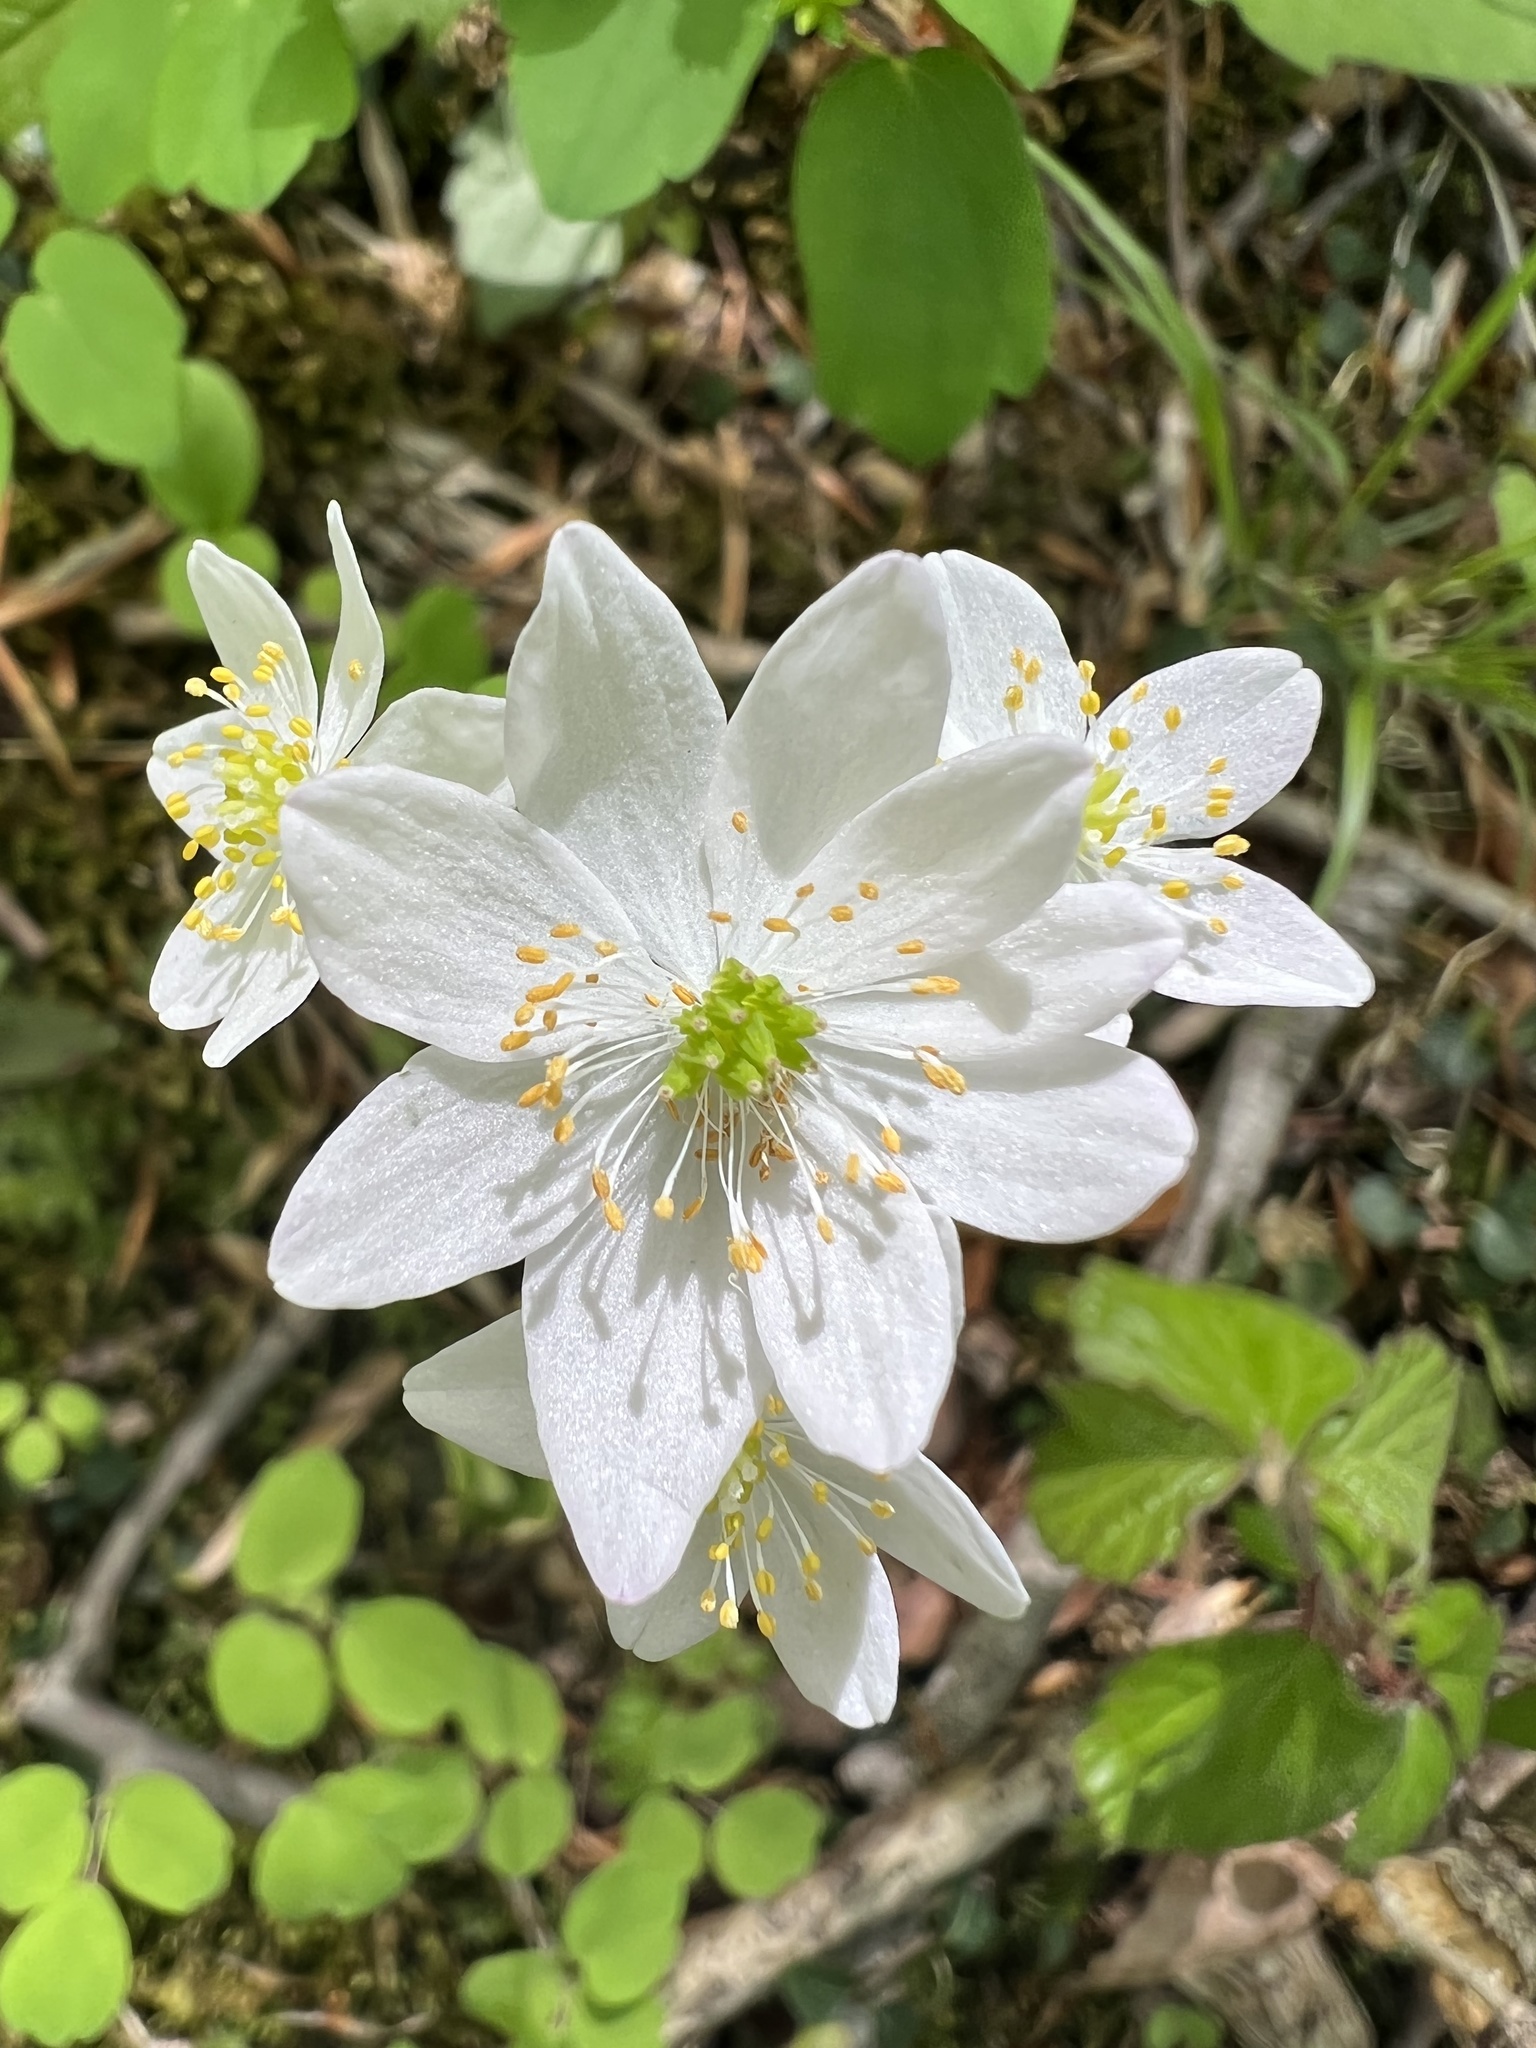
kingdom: Plantae
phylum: Tracheophyta
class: Magnoliopsida
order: Ranunculales
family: Ranunculaceae
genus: Thalictrum
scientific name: Thalictrum thalictroides
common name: Rue-anemone
